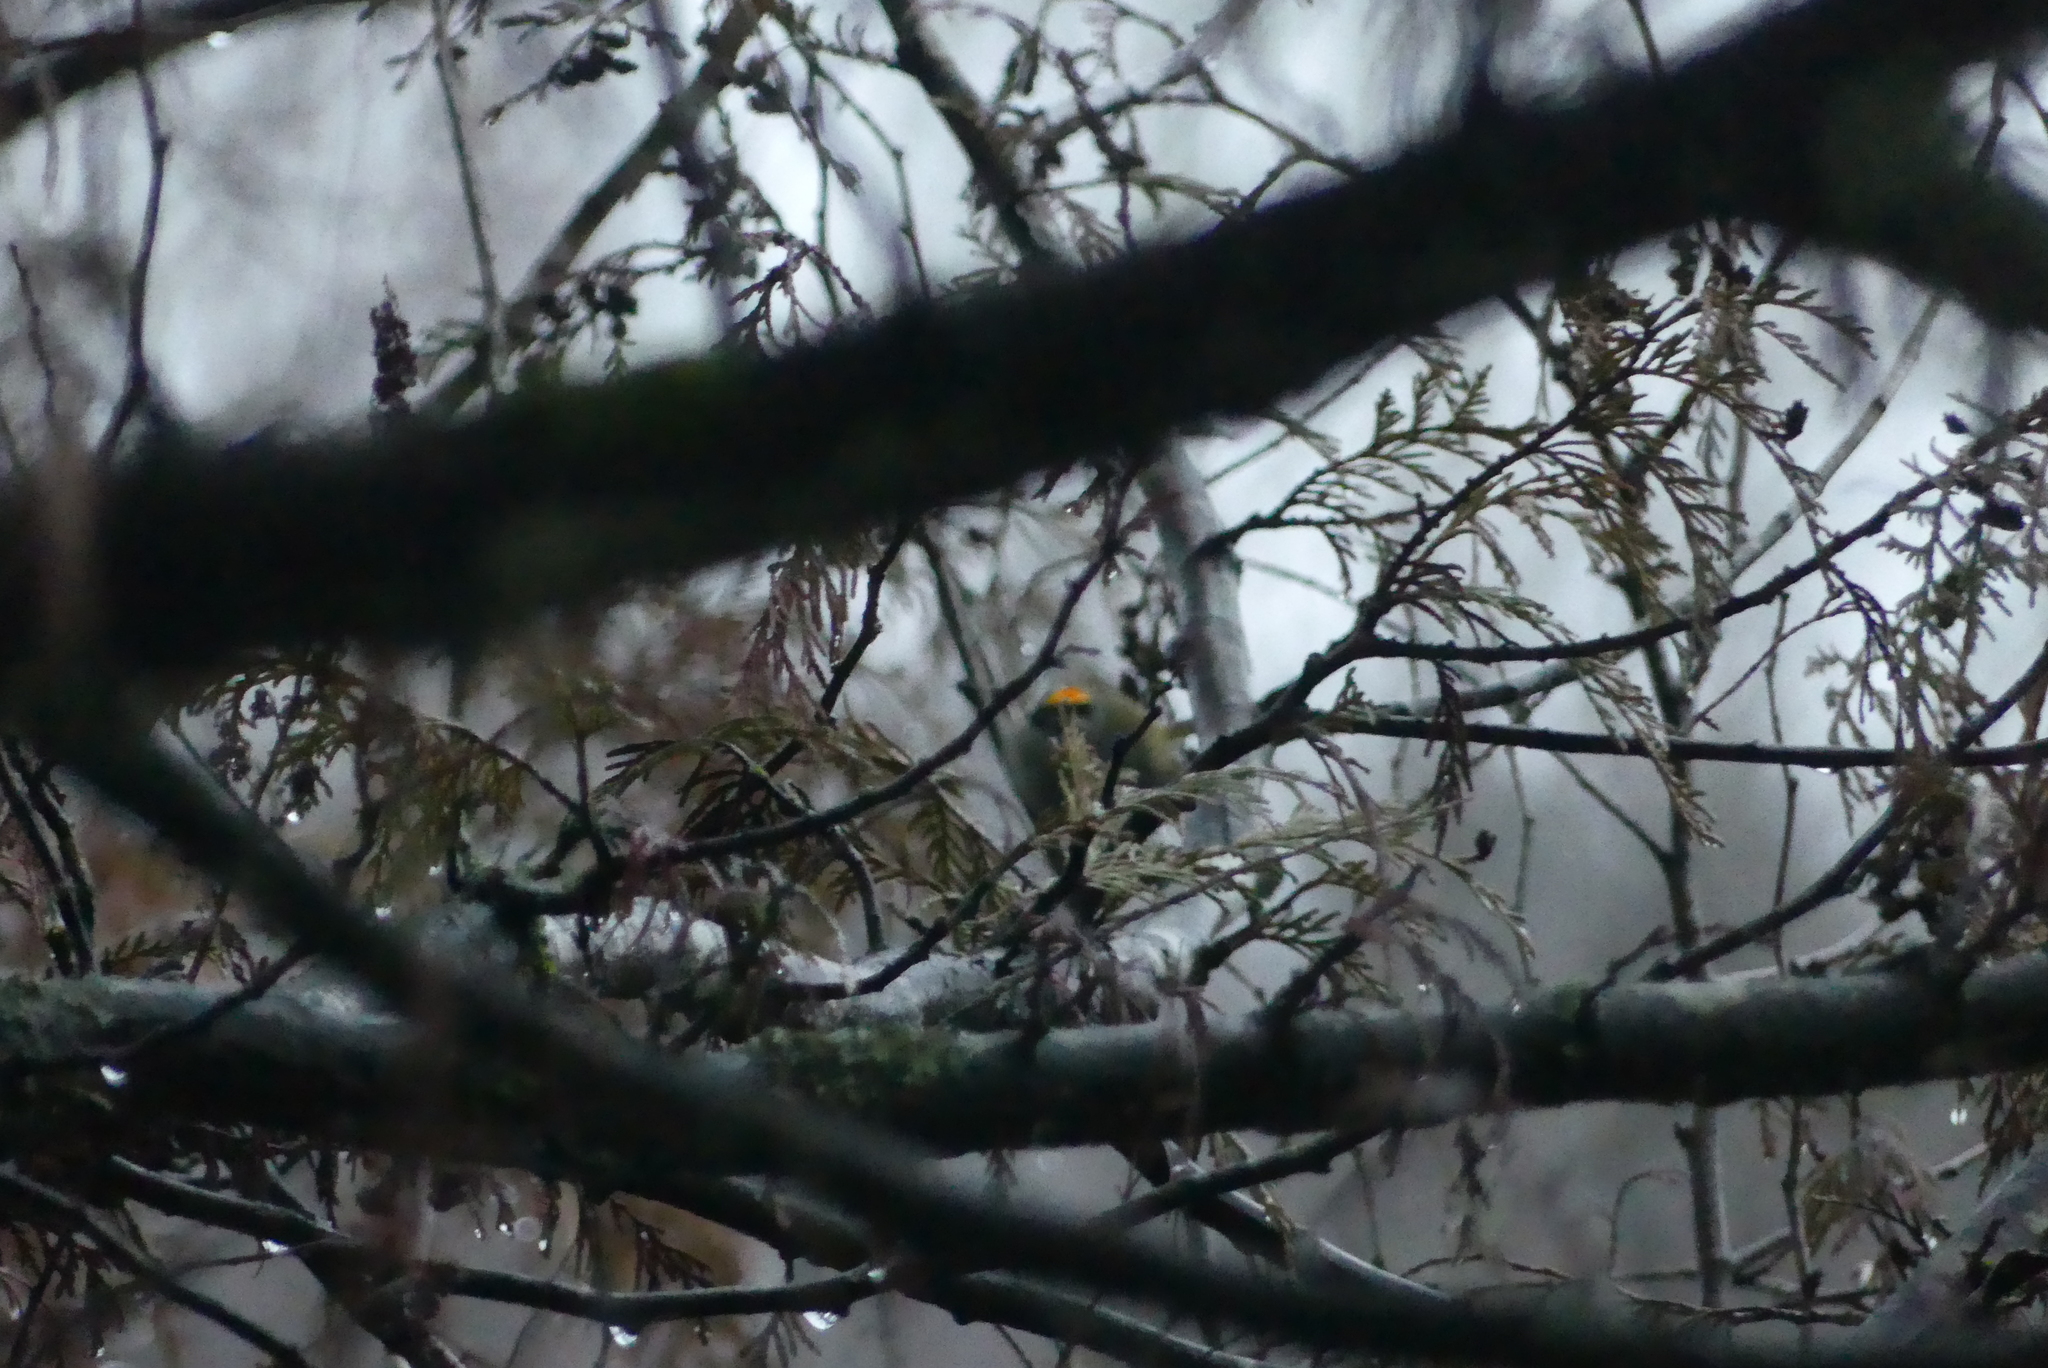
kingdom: Animalia
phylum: Chordata
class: Aves
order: Passeriformes
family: Regulidae
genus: Regulus
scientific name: Regulus satrapa
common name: Golden-crowned kinglet
